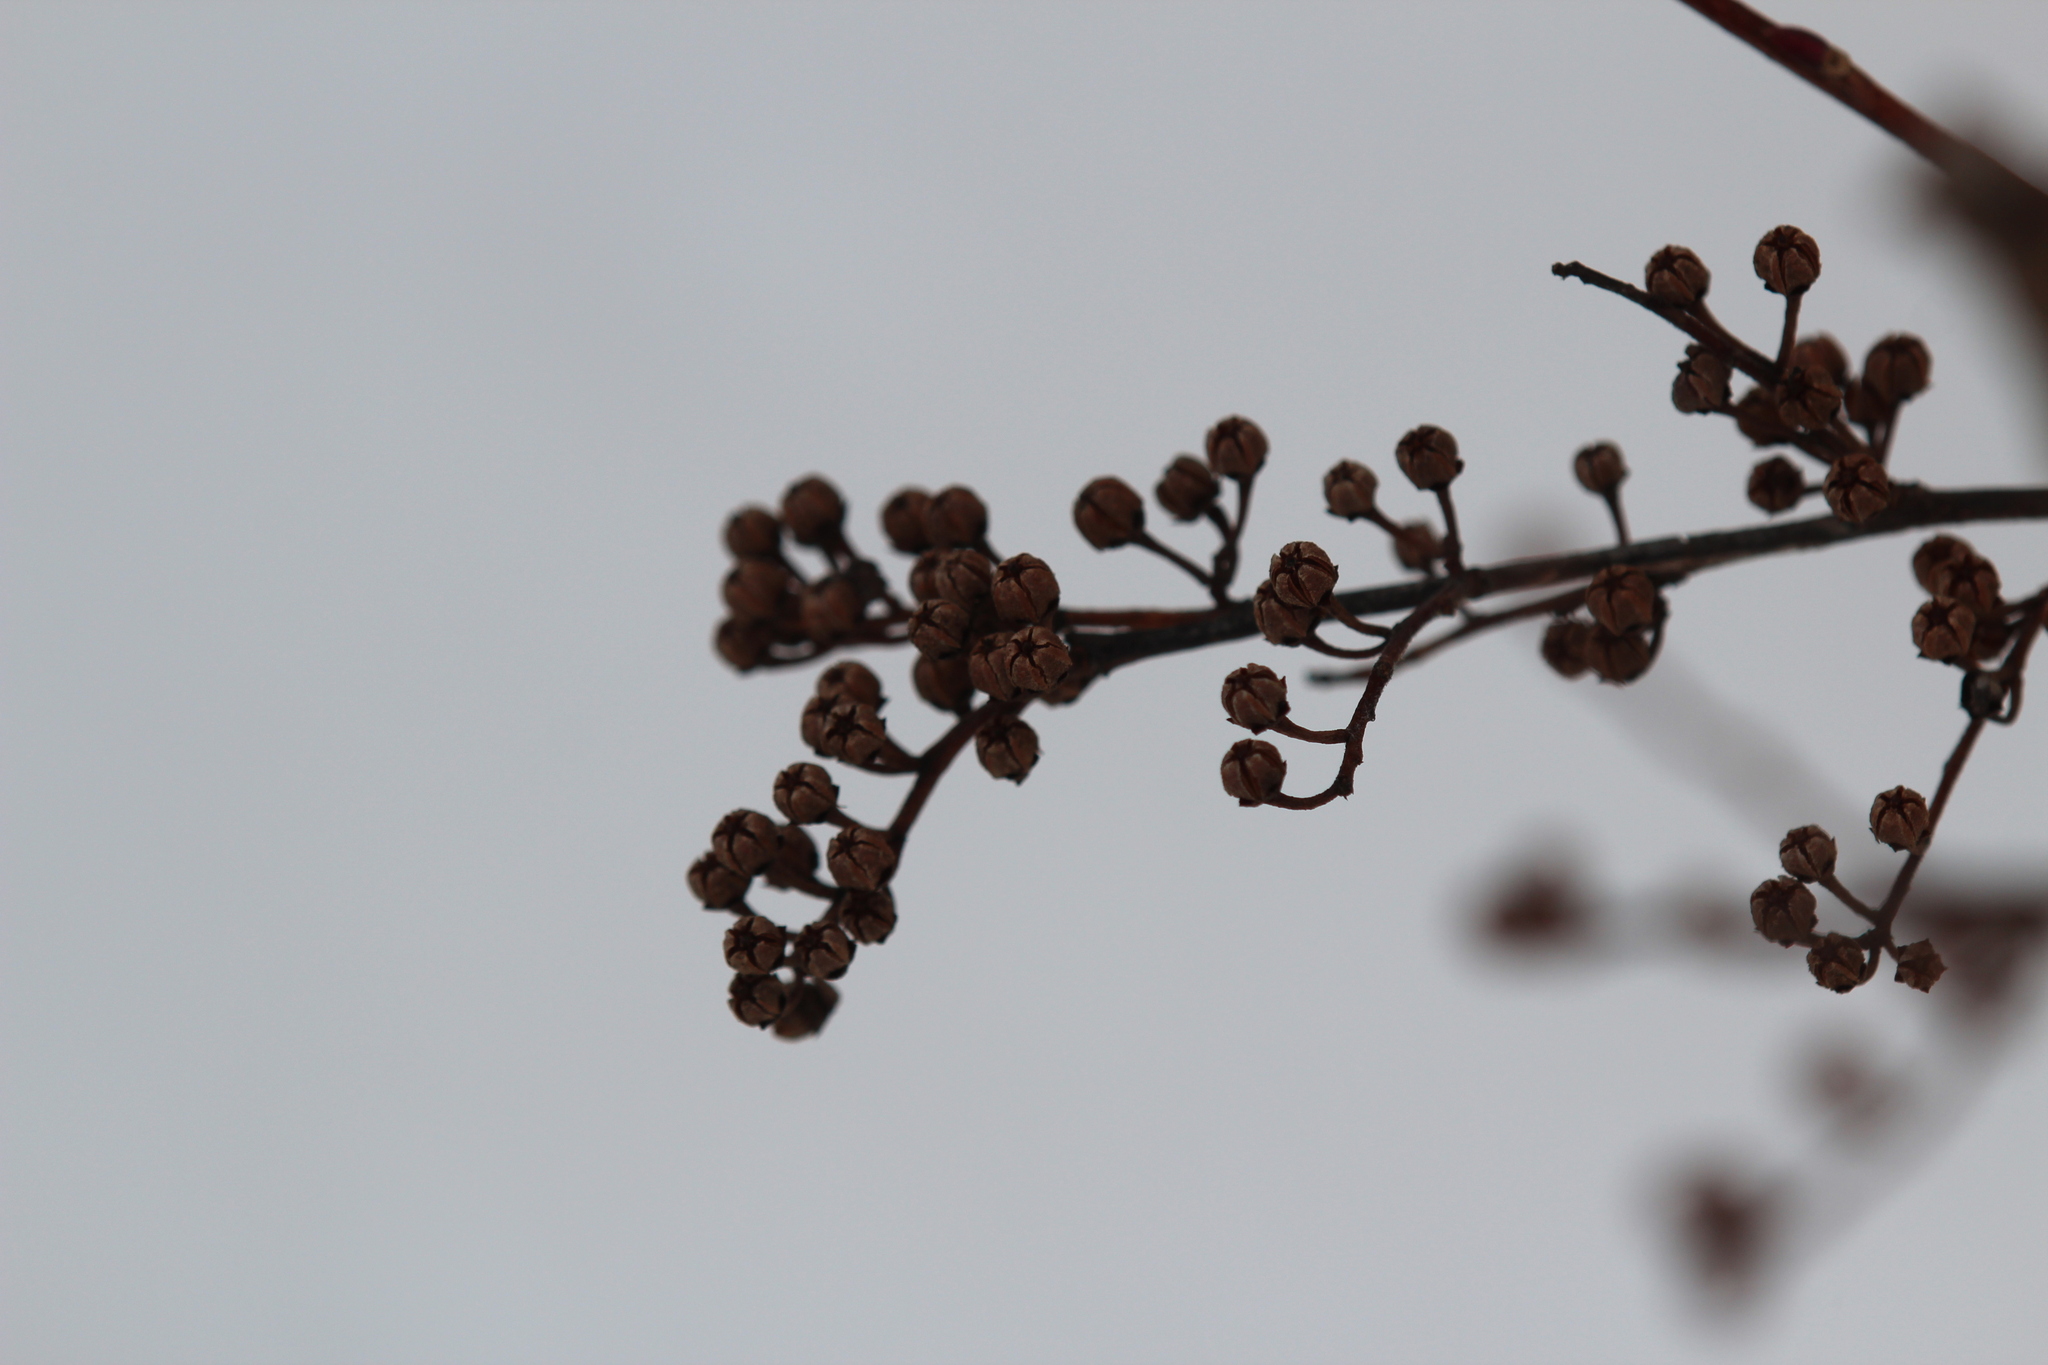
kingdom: Plantae
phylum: Tracheophyta
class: Magnoliopsida
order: Ericales
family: Ericaceae
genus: Lyonia
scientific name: Lyonia ligustrina
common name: Maleberry
